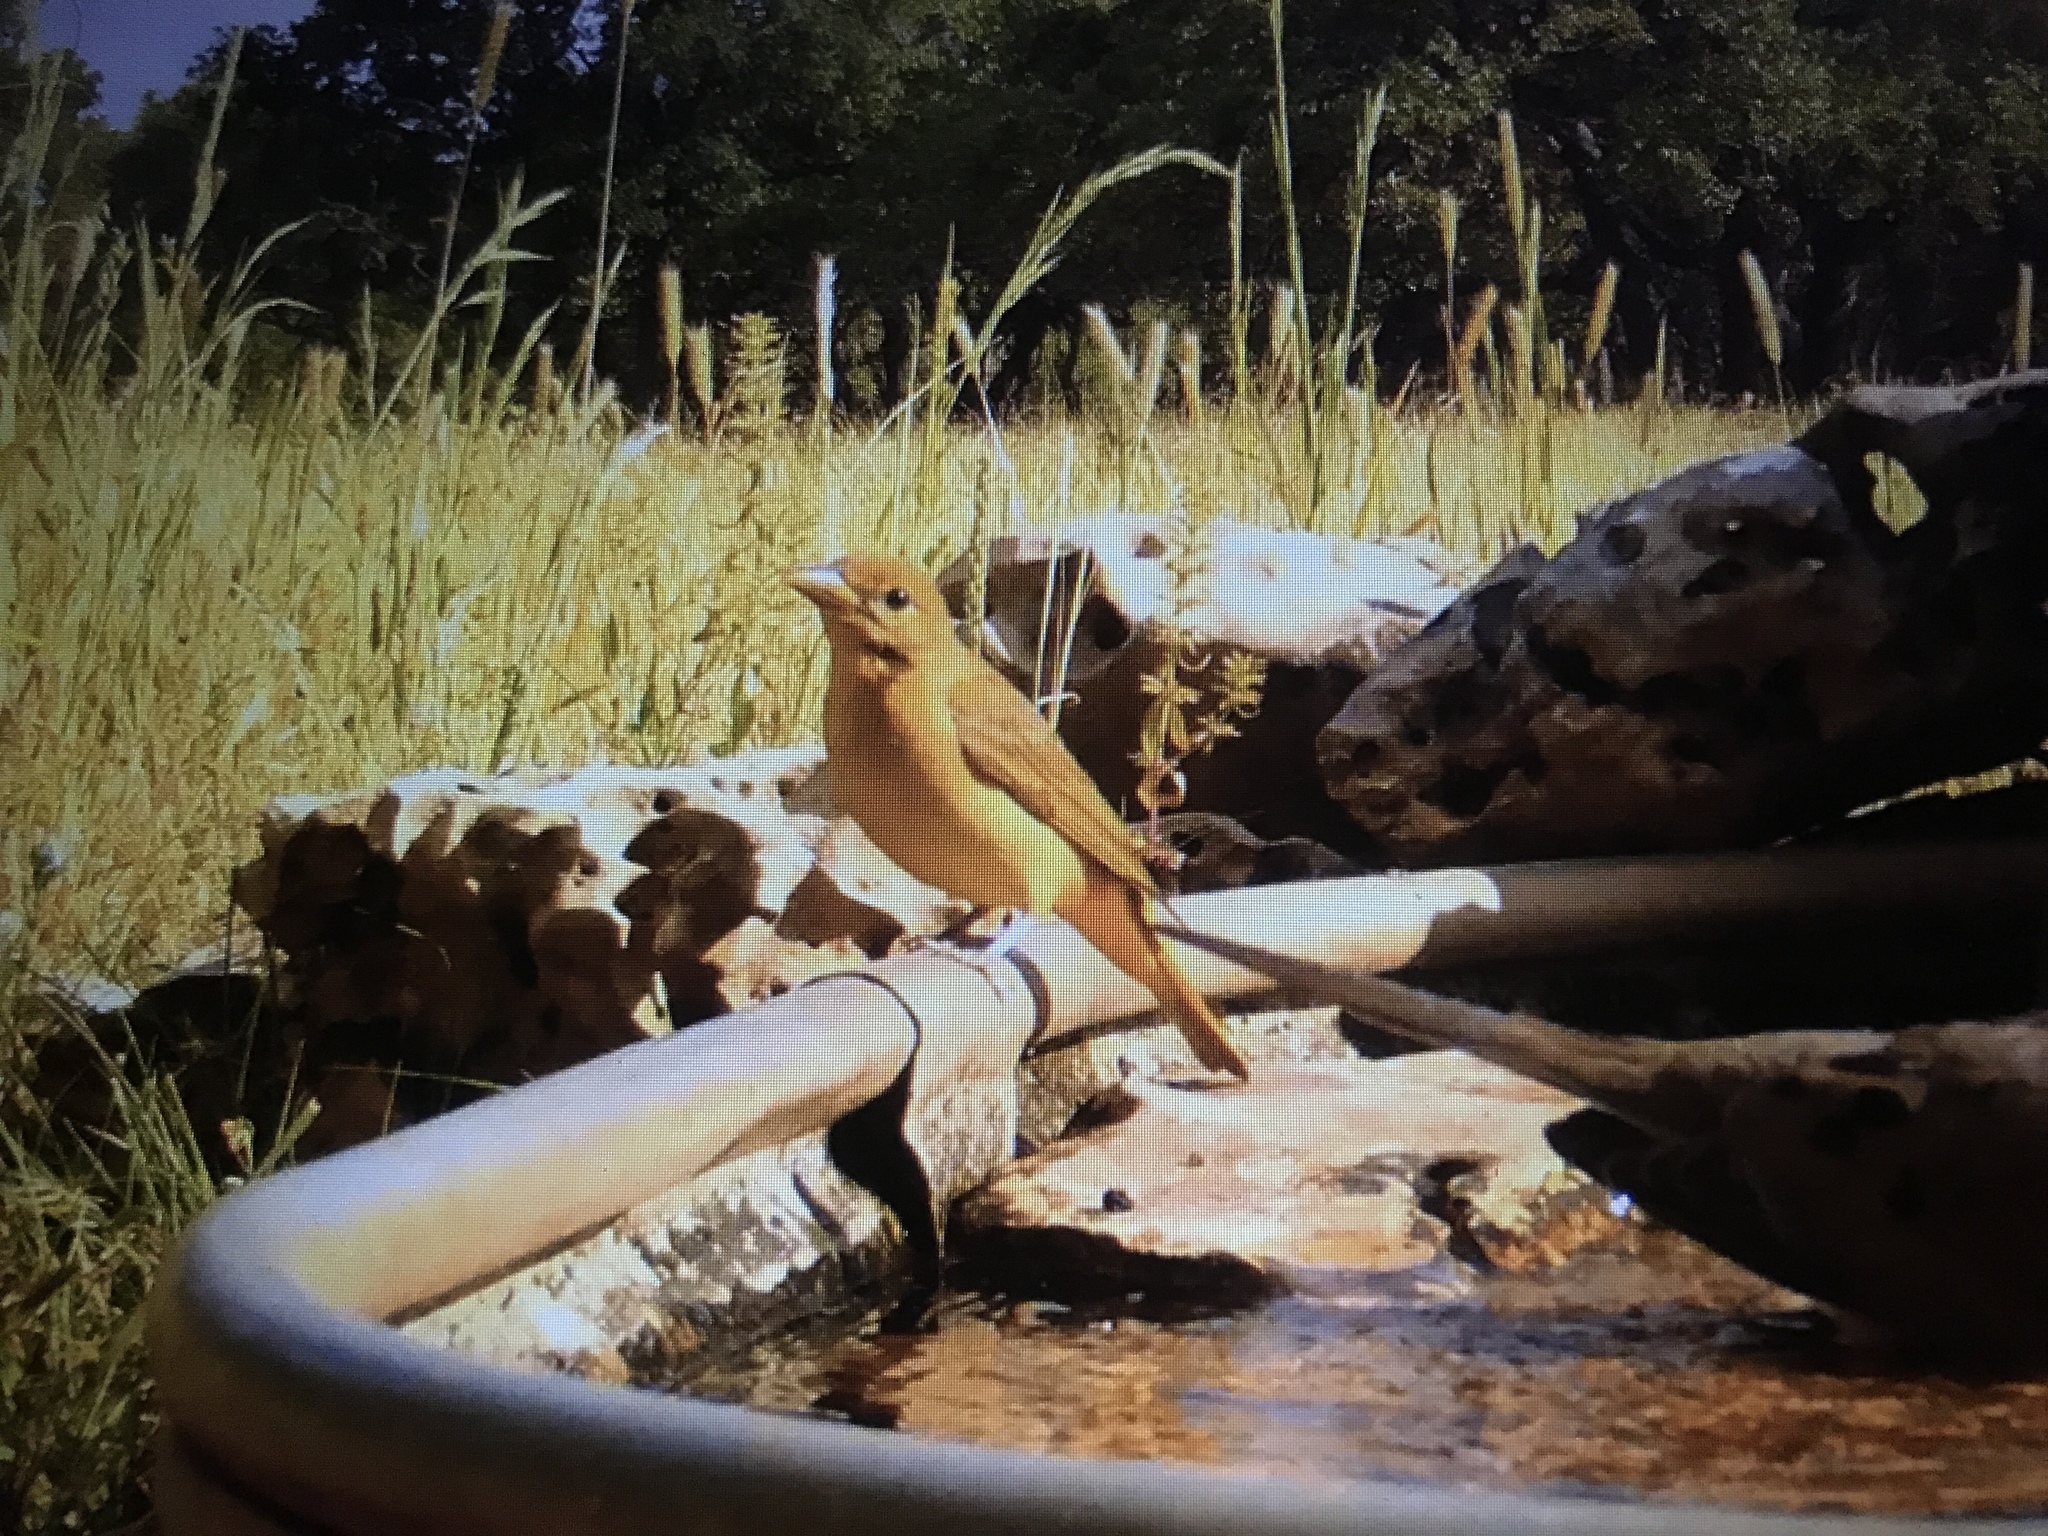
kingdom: Animalia
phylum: Chordata
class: Aves
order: Passeriformes
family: Cardinalidae
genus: Piranga
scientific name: Piranga rubra
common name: Summer tanager
